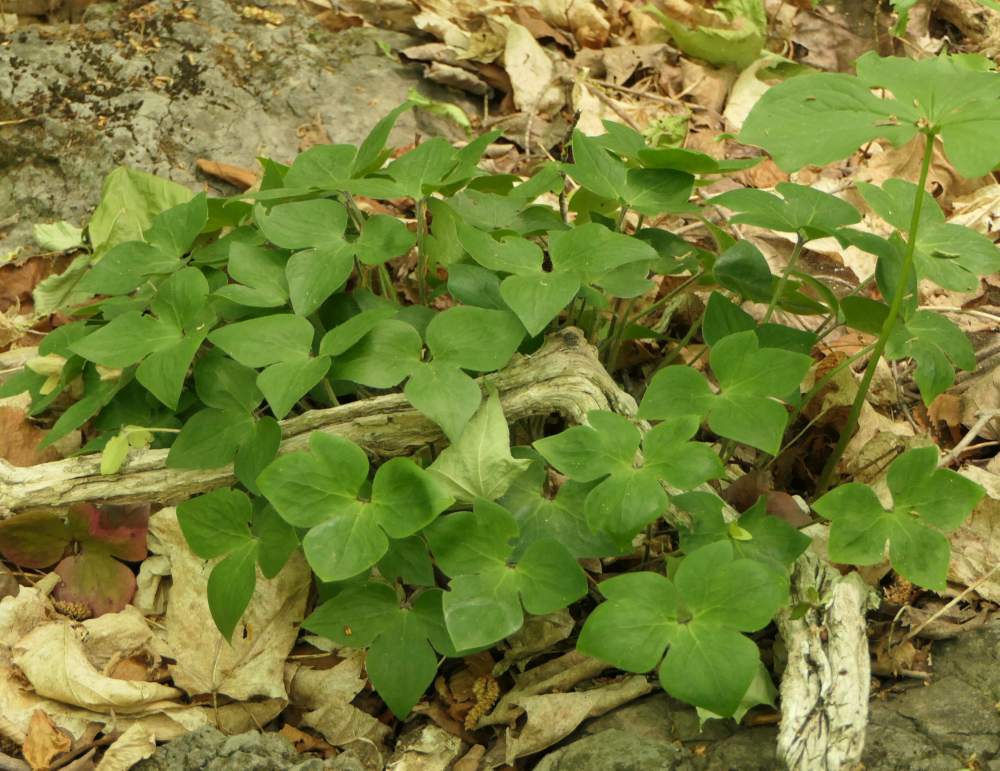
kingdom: Plantae
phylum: Tracheophyta
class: Magnoliopsida
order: Ranunculales
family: Ranunculaceae
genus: Hepatica
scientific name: Hepatica acutiloba
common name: Sharp-lobed hepatica
